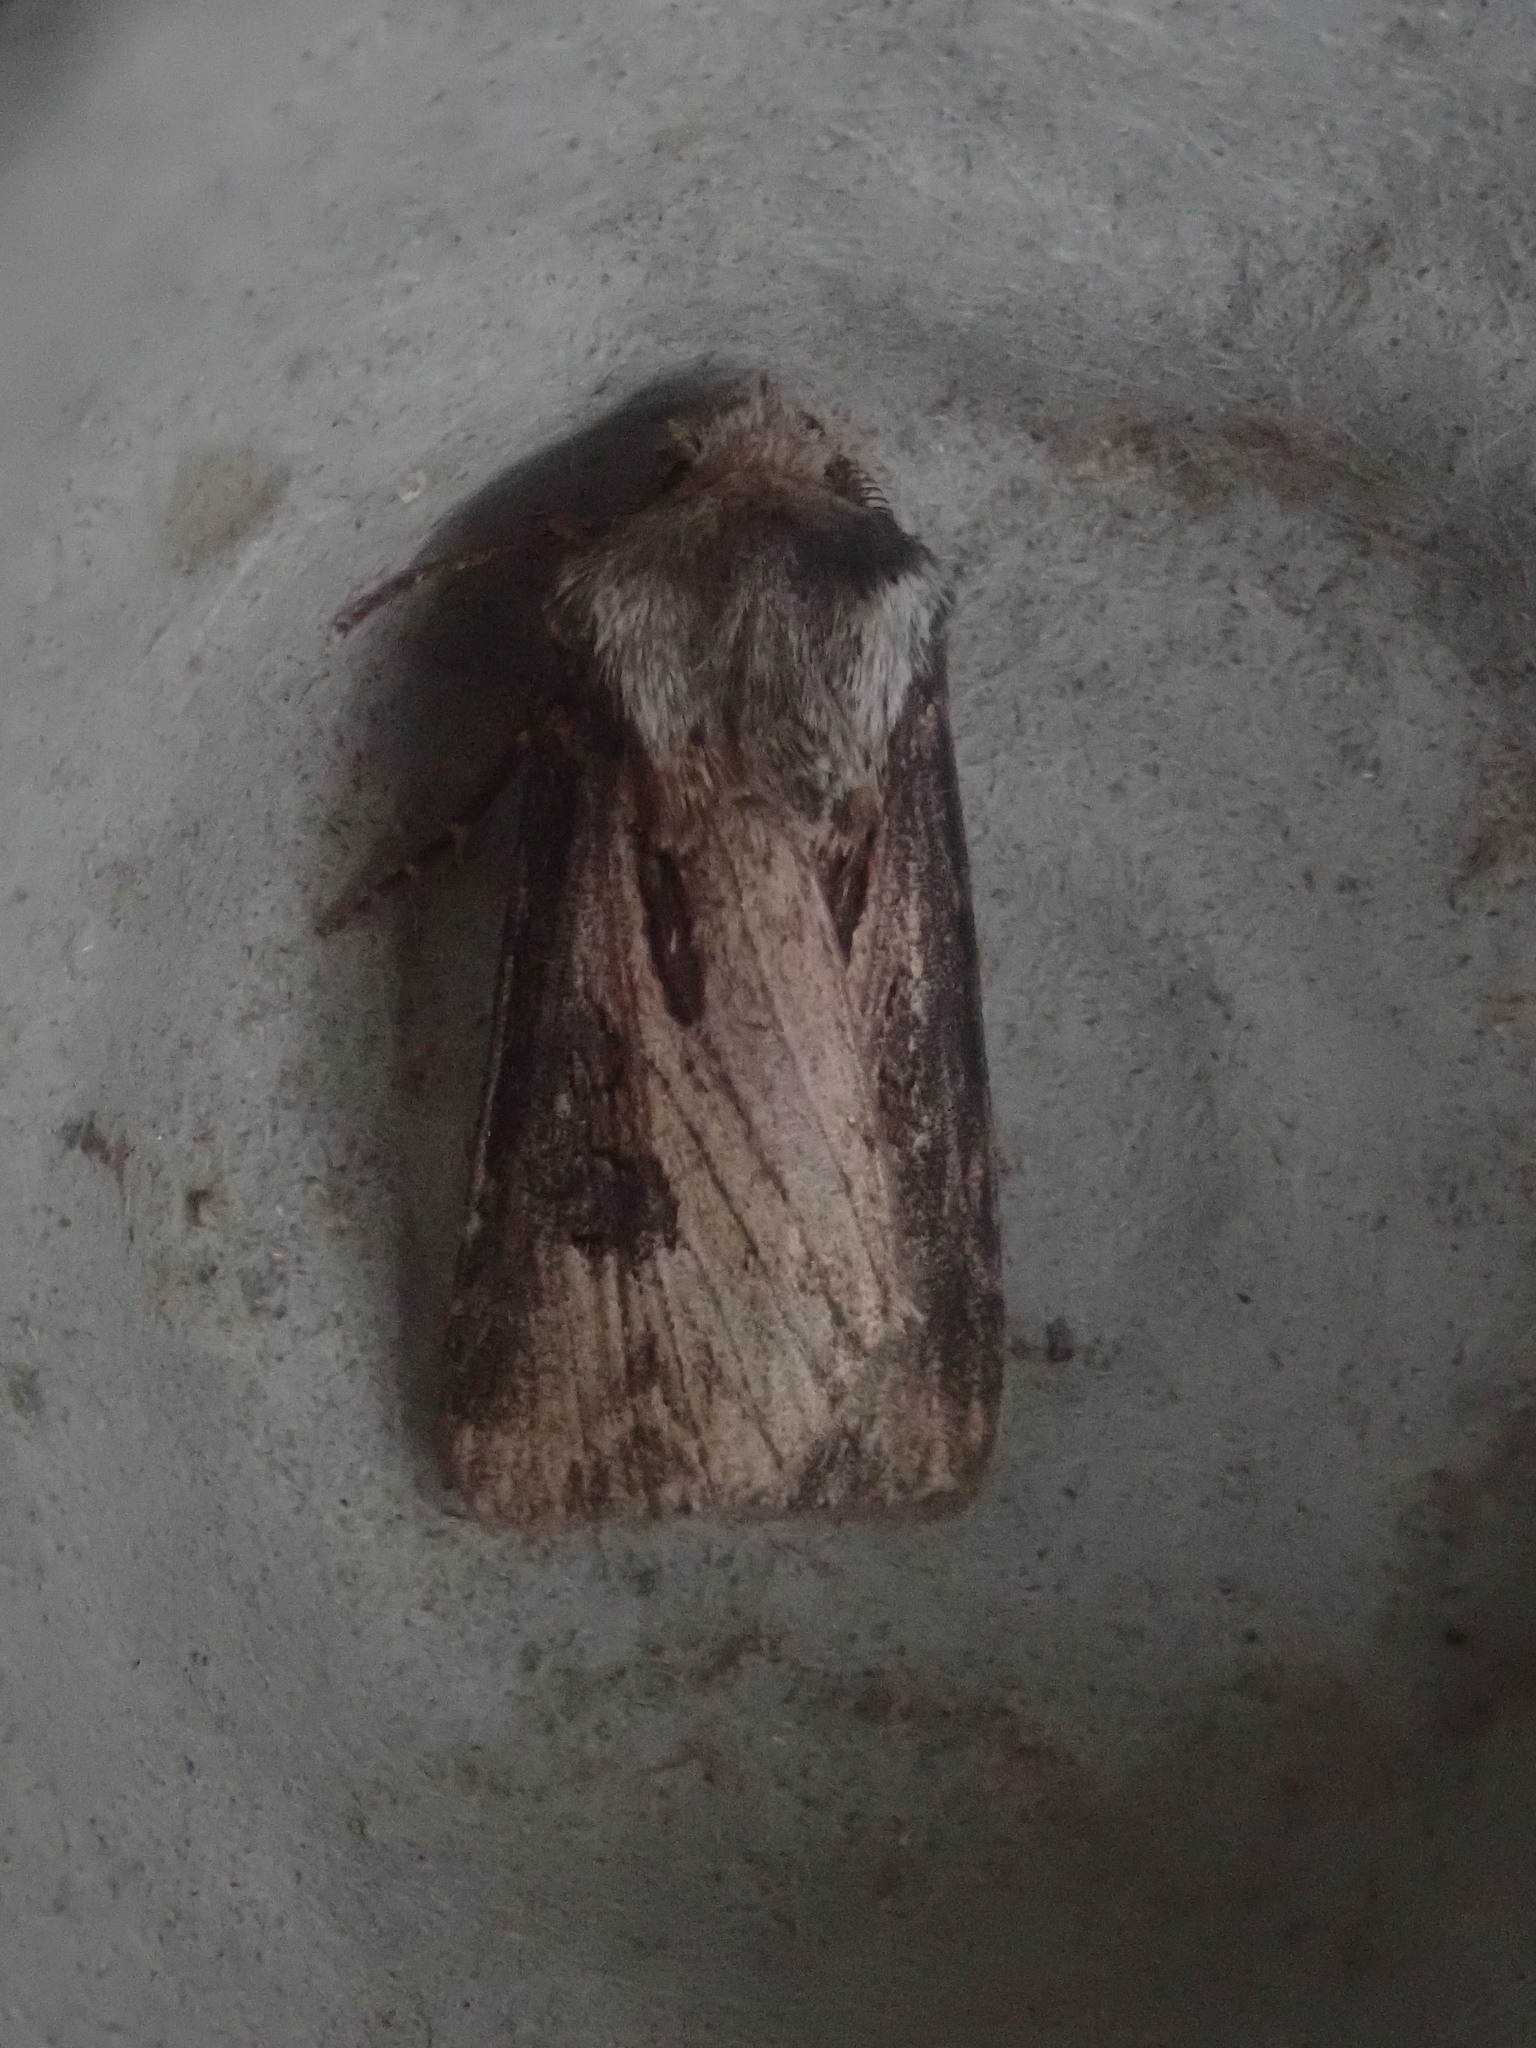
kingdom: Animalia
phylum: Arthropoda
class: Insecta
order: Lepidoptera
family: Noctuidae
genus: Agrotis
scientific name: Agrotis venerabilis
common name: Venerable dart
